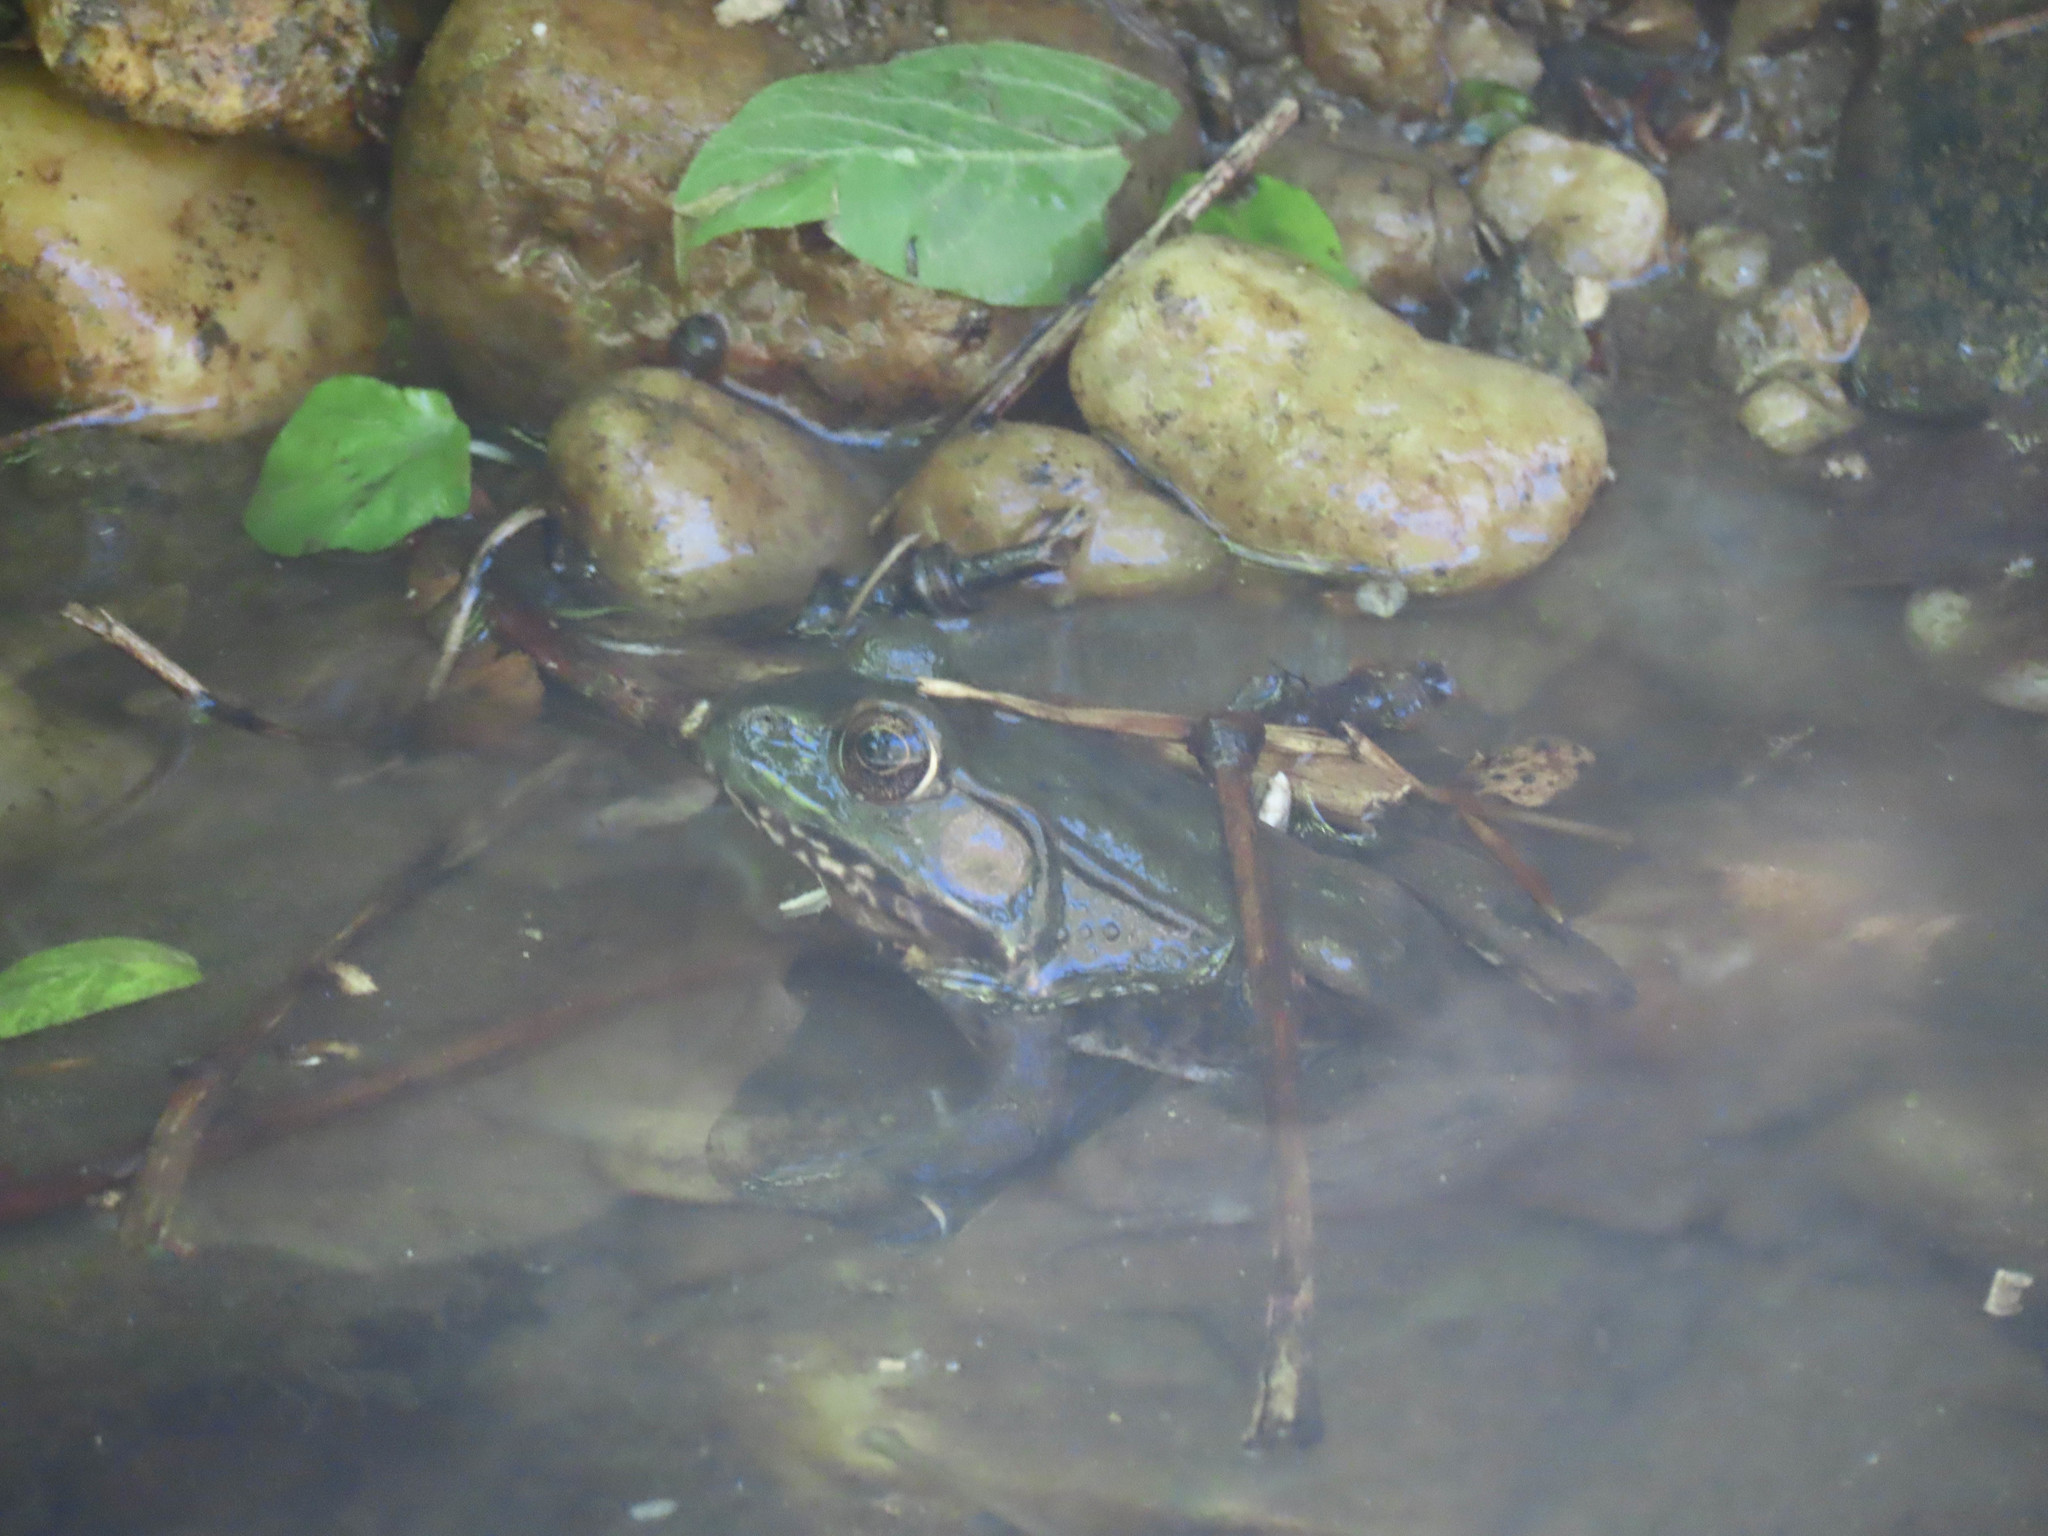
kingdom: Animalia
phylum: Chordata
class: Amphibia
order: Anura
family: Ranidae
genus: Lithobates
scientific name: Lithobates clamitans
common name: Green frog
